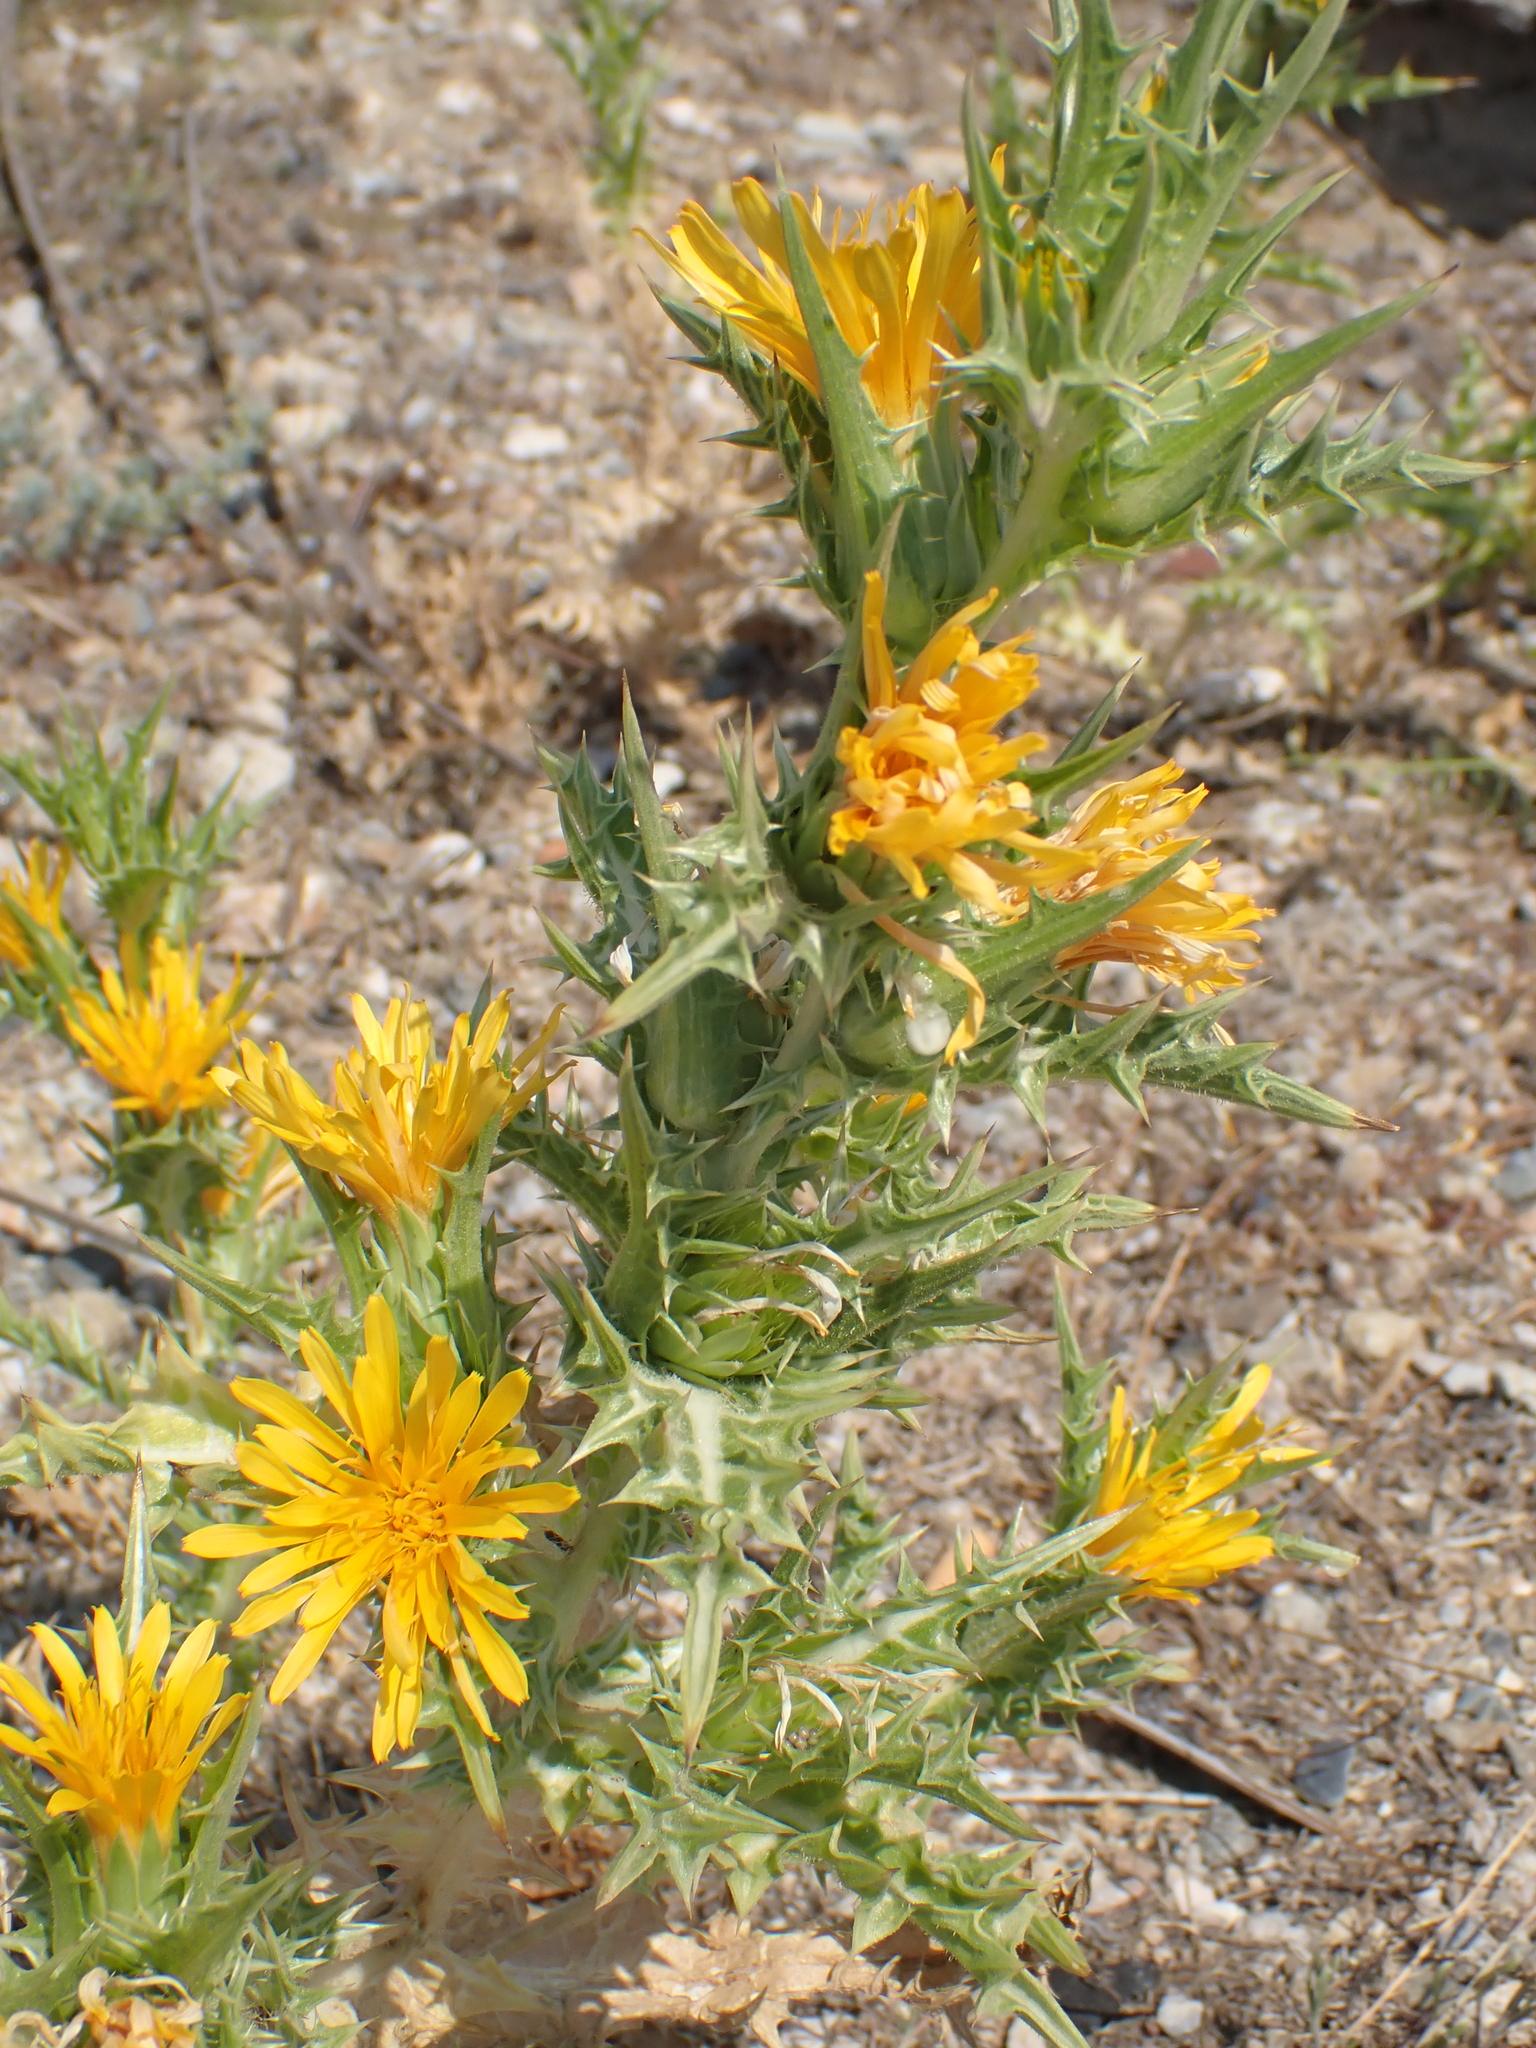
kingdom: Plantae
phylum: Tracheophyta
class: Magnoliopsida
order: Asterales
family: Asteraceae
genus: Scolymus
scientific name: Scolymus hispanicus
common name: Golden thistle
